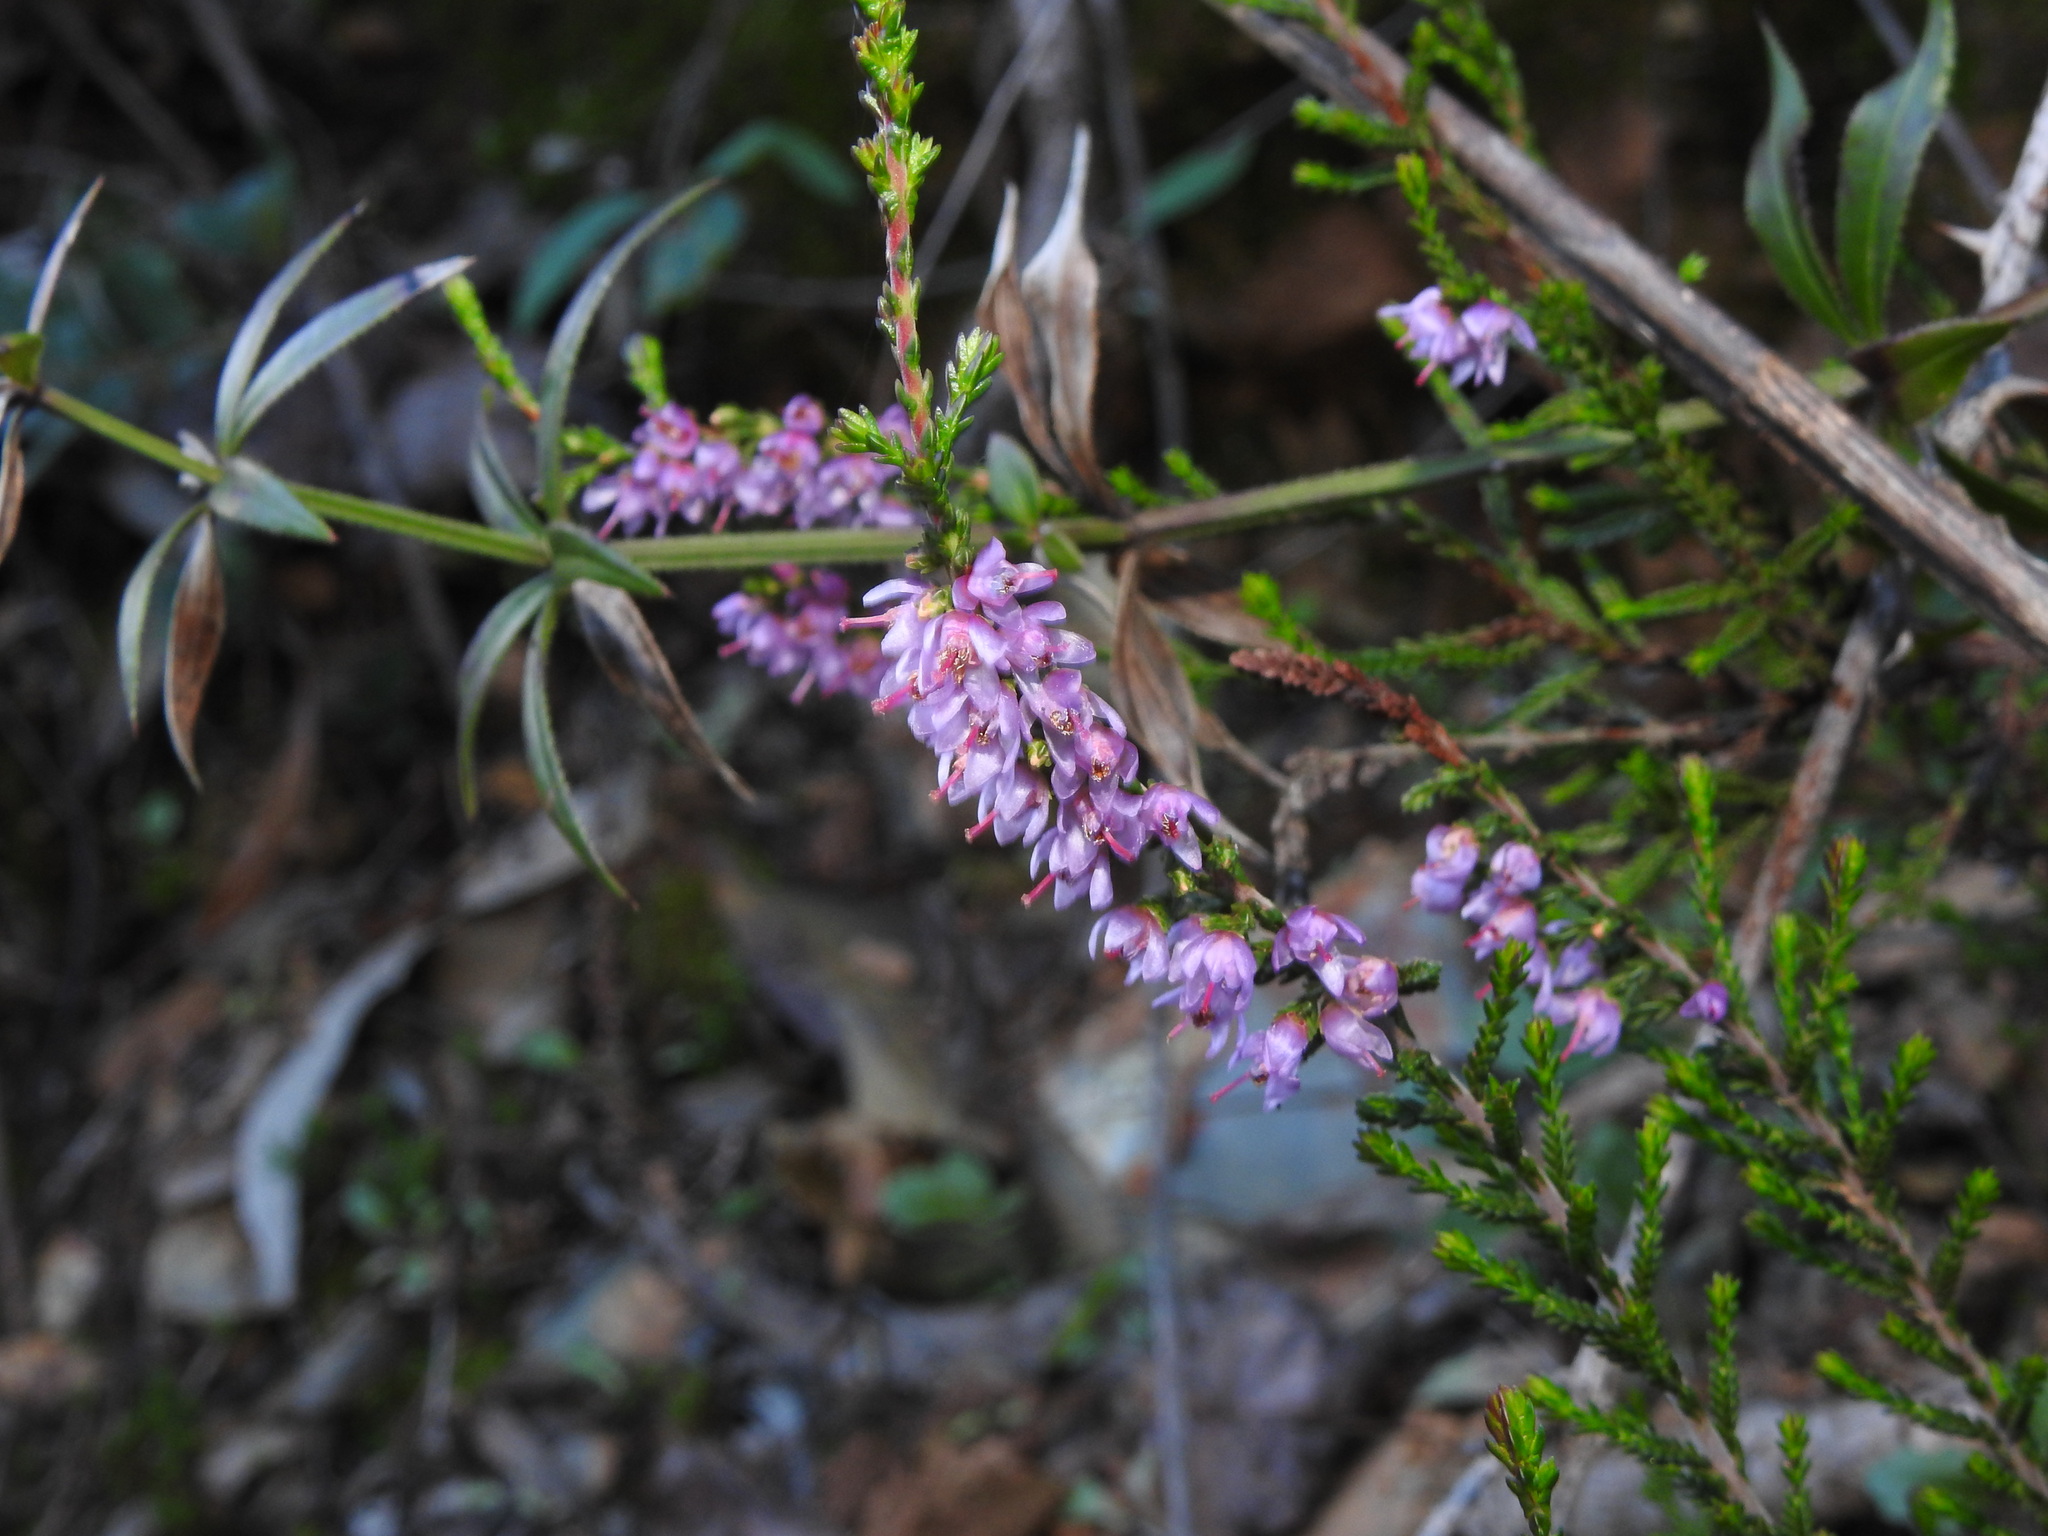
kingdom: Plantae
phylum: Tracheophyta
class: Magnoliopsida
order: Ericales
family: Ericaceae
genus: Calluna
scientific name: Calluna vulgaris
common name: Heather
